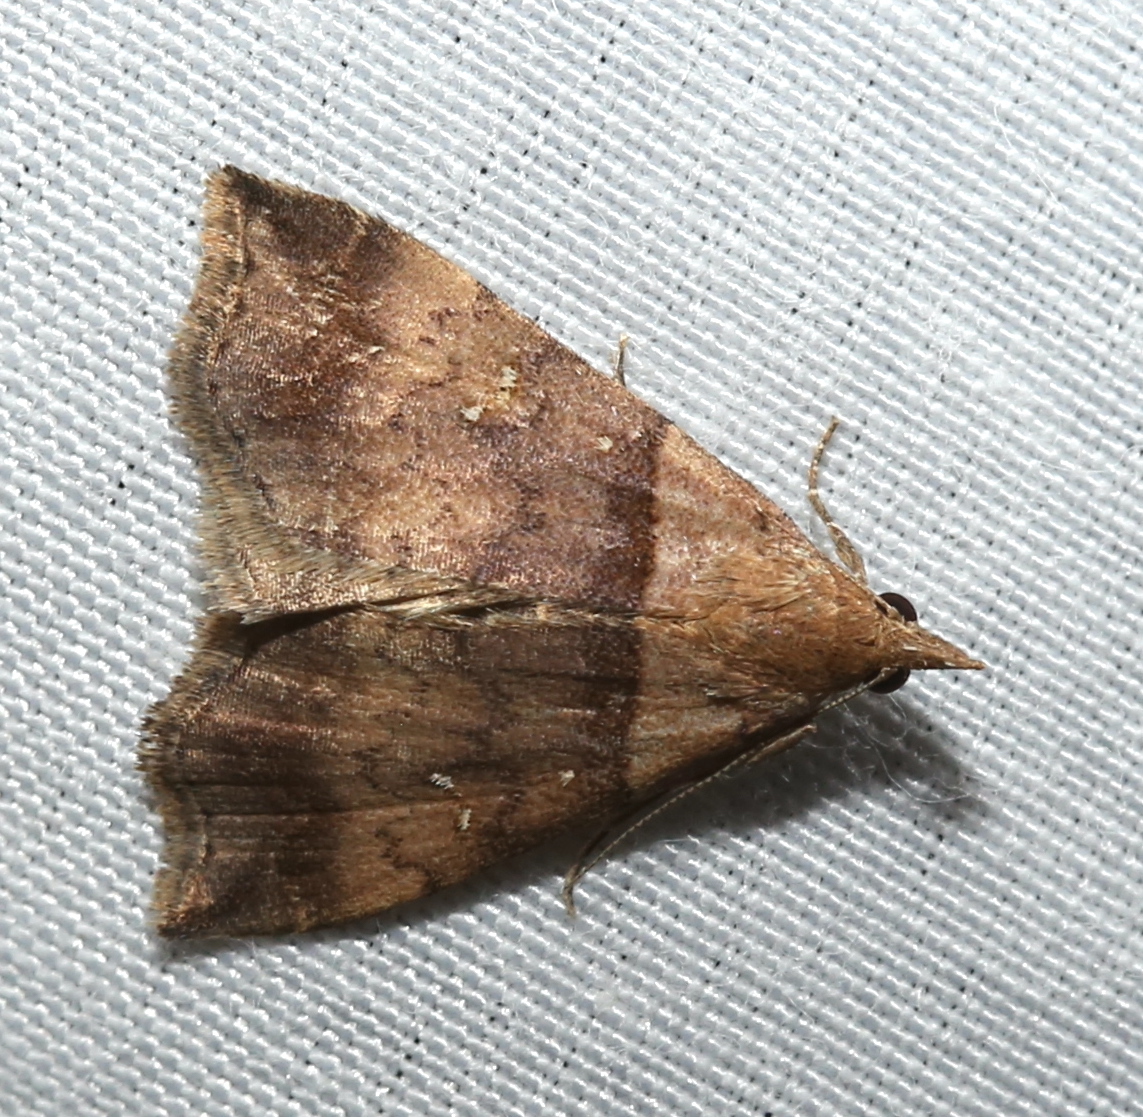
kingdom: Animalia
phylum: Arthropoda
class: Insecta
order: Lepidoptera
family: Erebidae
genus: Lascoria
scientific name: Lascoria ambigualis
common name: Ambiguous moth
